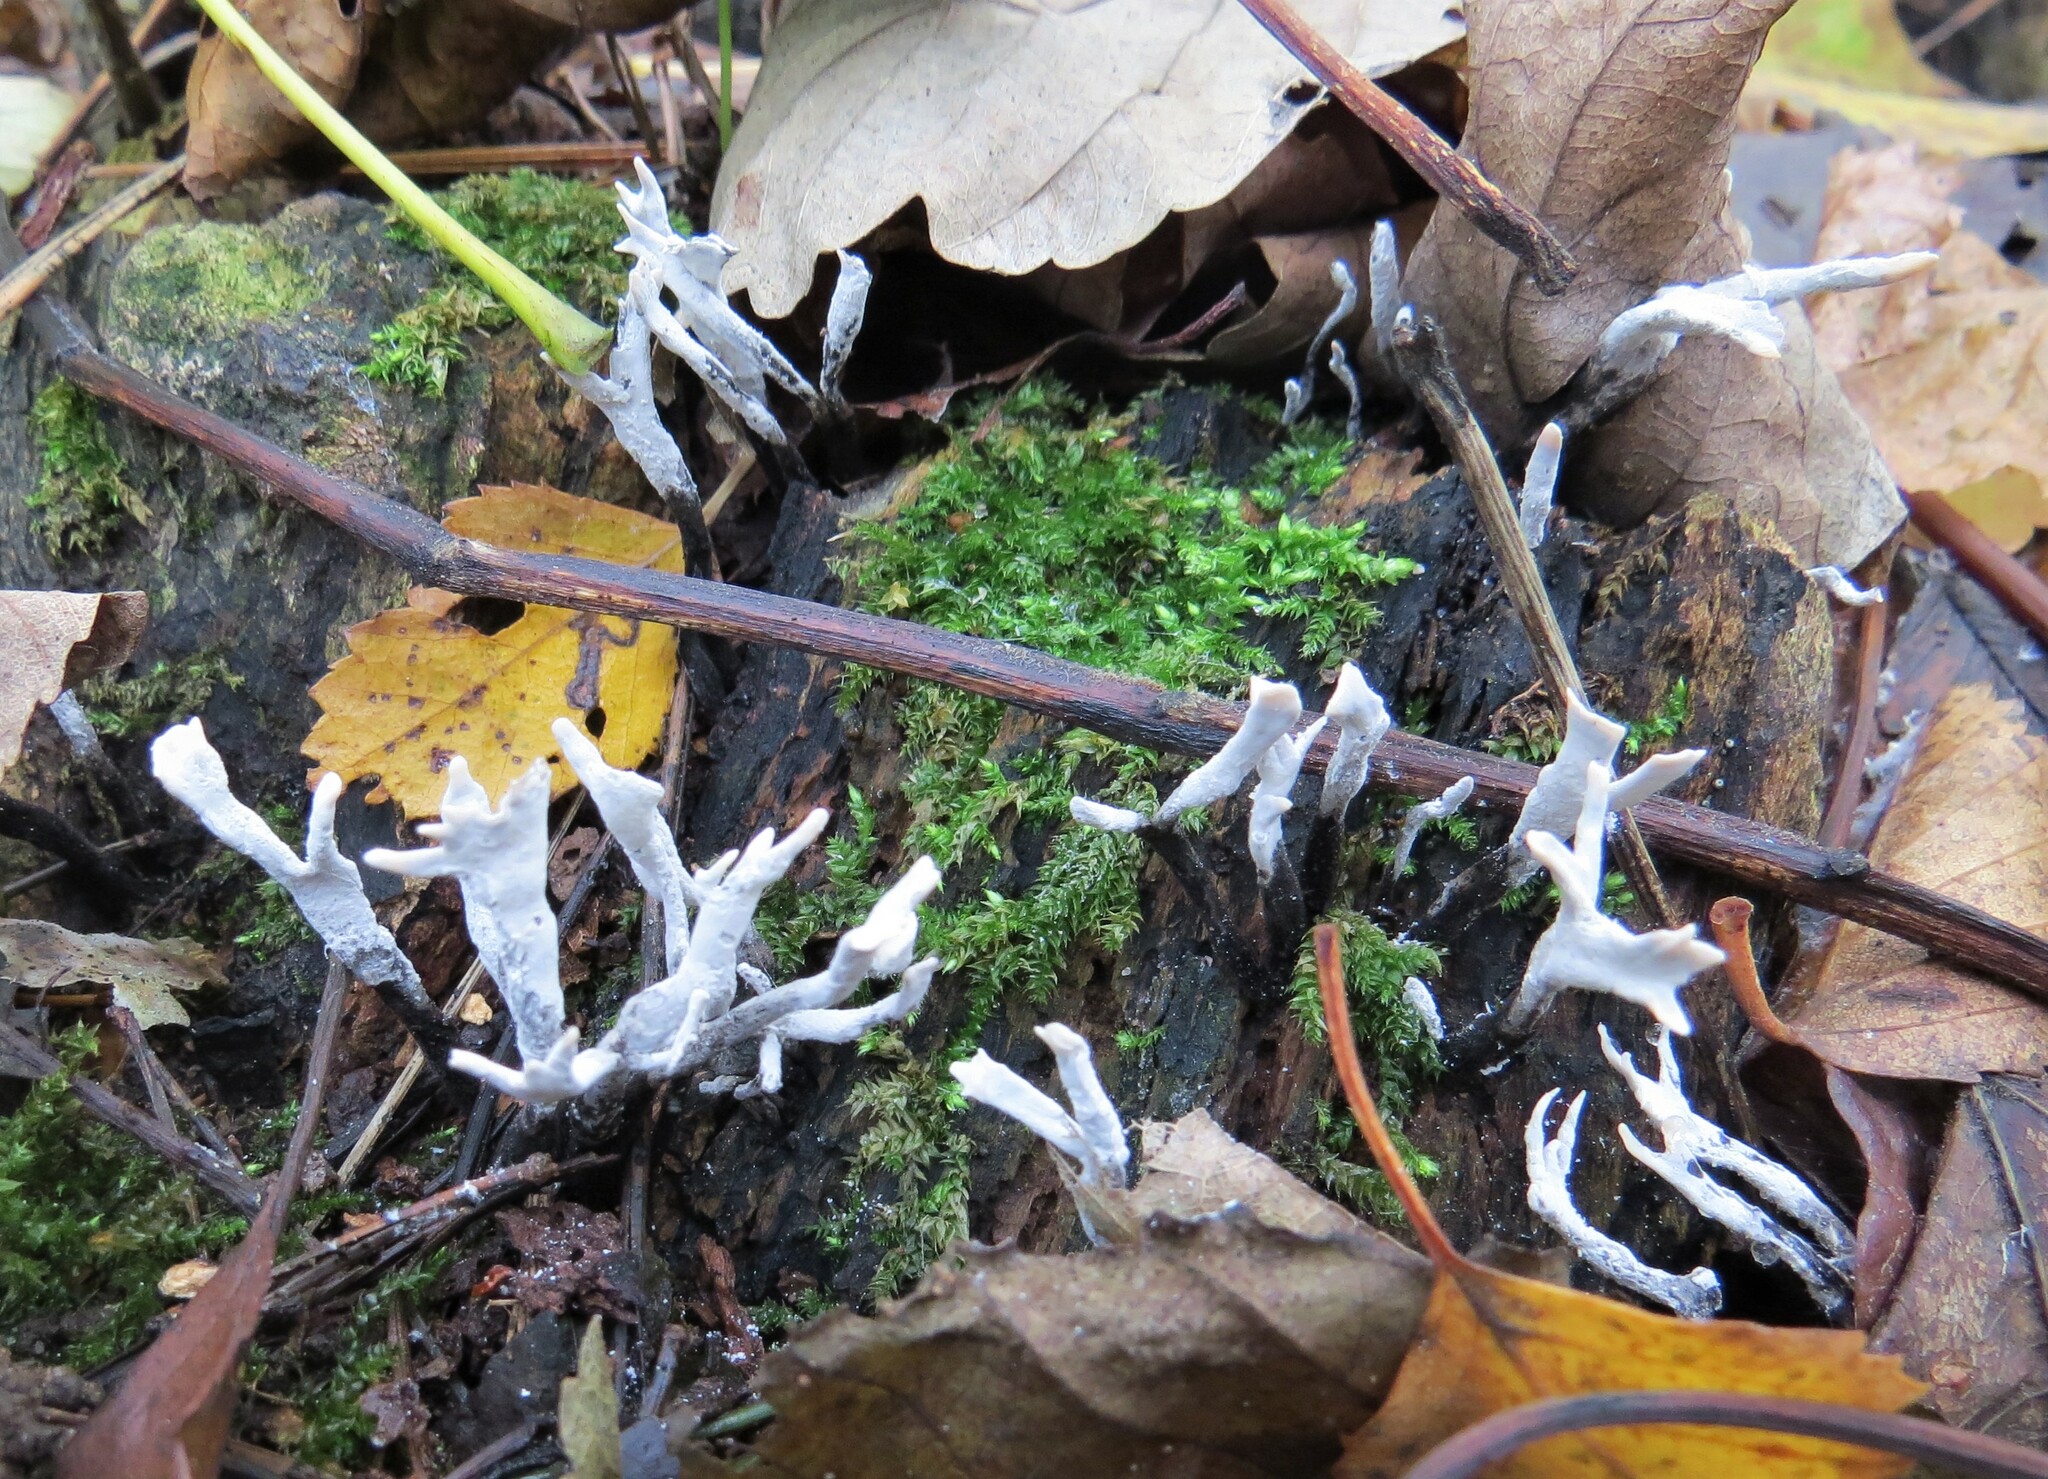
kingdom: Fungi
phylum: Ascomycota
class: Sordariomycetes
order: Xylariales
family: Xylariaceae
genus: Xylaria
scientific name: Xylaria hypoxylon
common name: Candle-snuff fungus
